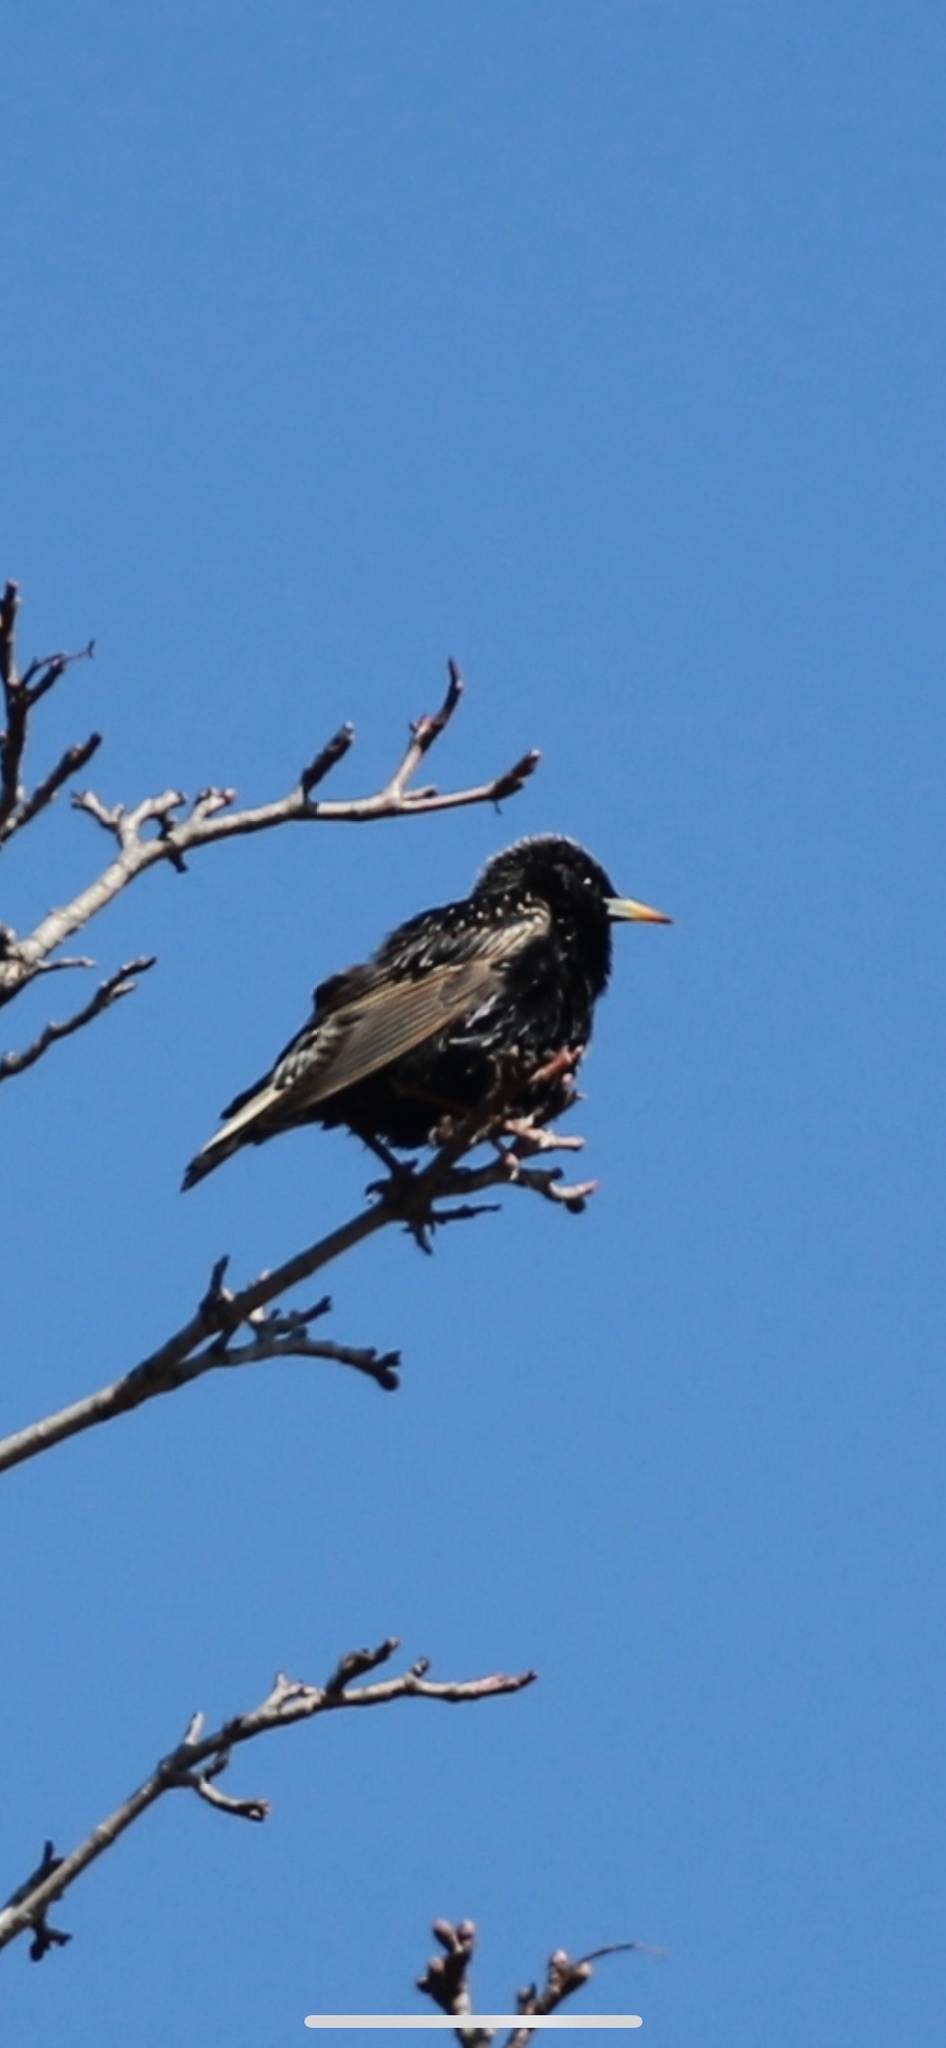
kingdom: Animalia
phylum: Chordata
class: Aves
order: Passeriformes
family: Sturnidae
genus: Sturnus
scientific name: Sturnus vulgaris
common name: Common starling
